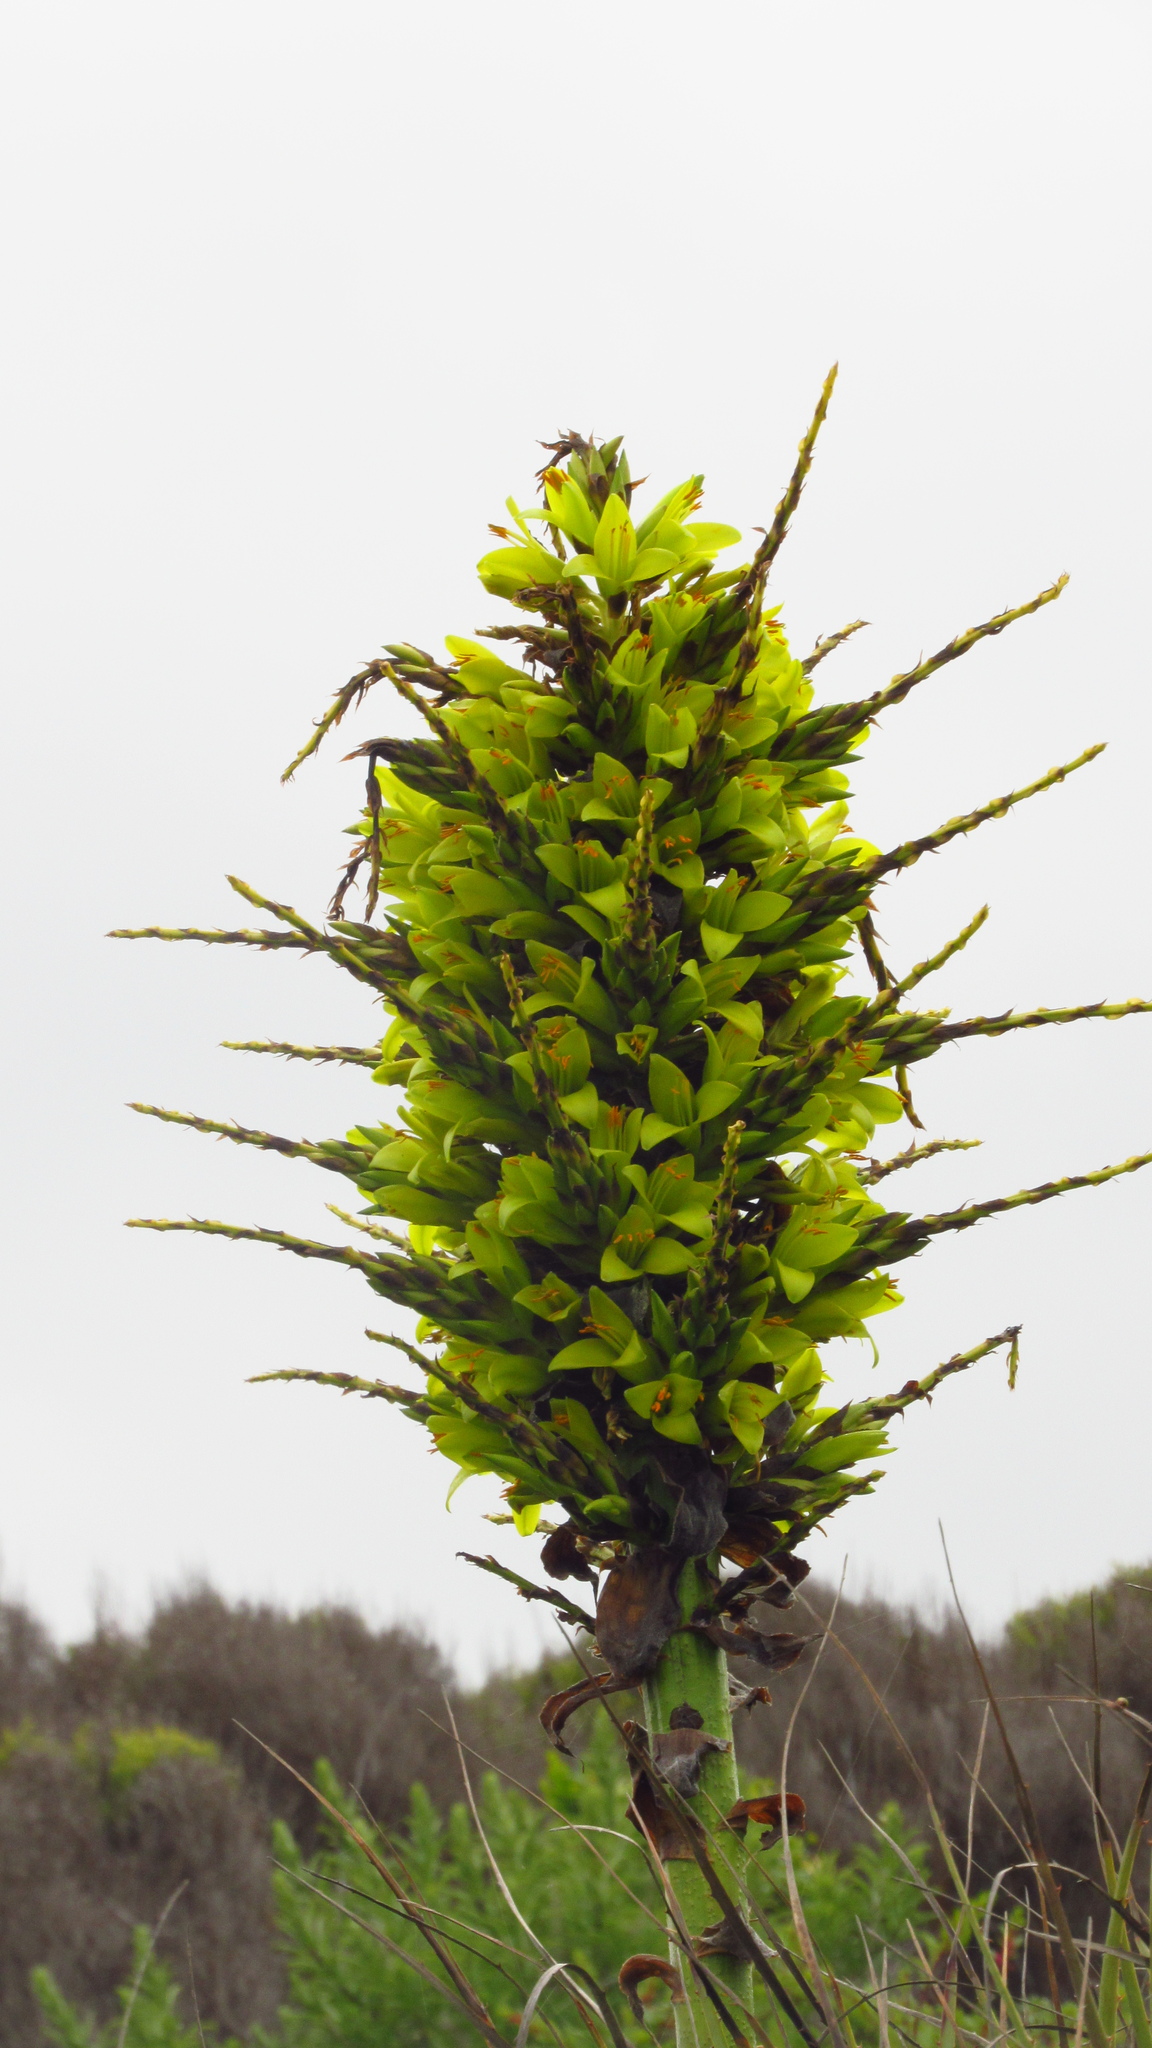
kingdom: Plantae
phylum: Tracheophyta
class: Liliopsida
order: Poales
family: Bromeliaceae
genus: Puya
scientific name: Puya chilensis
